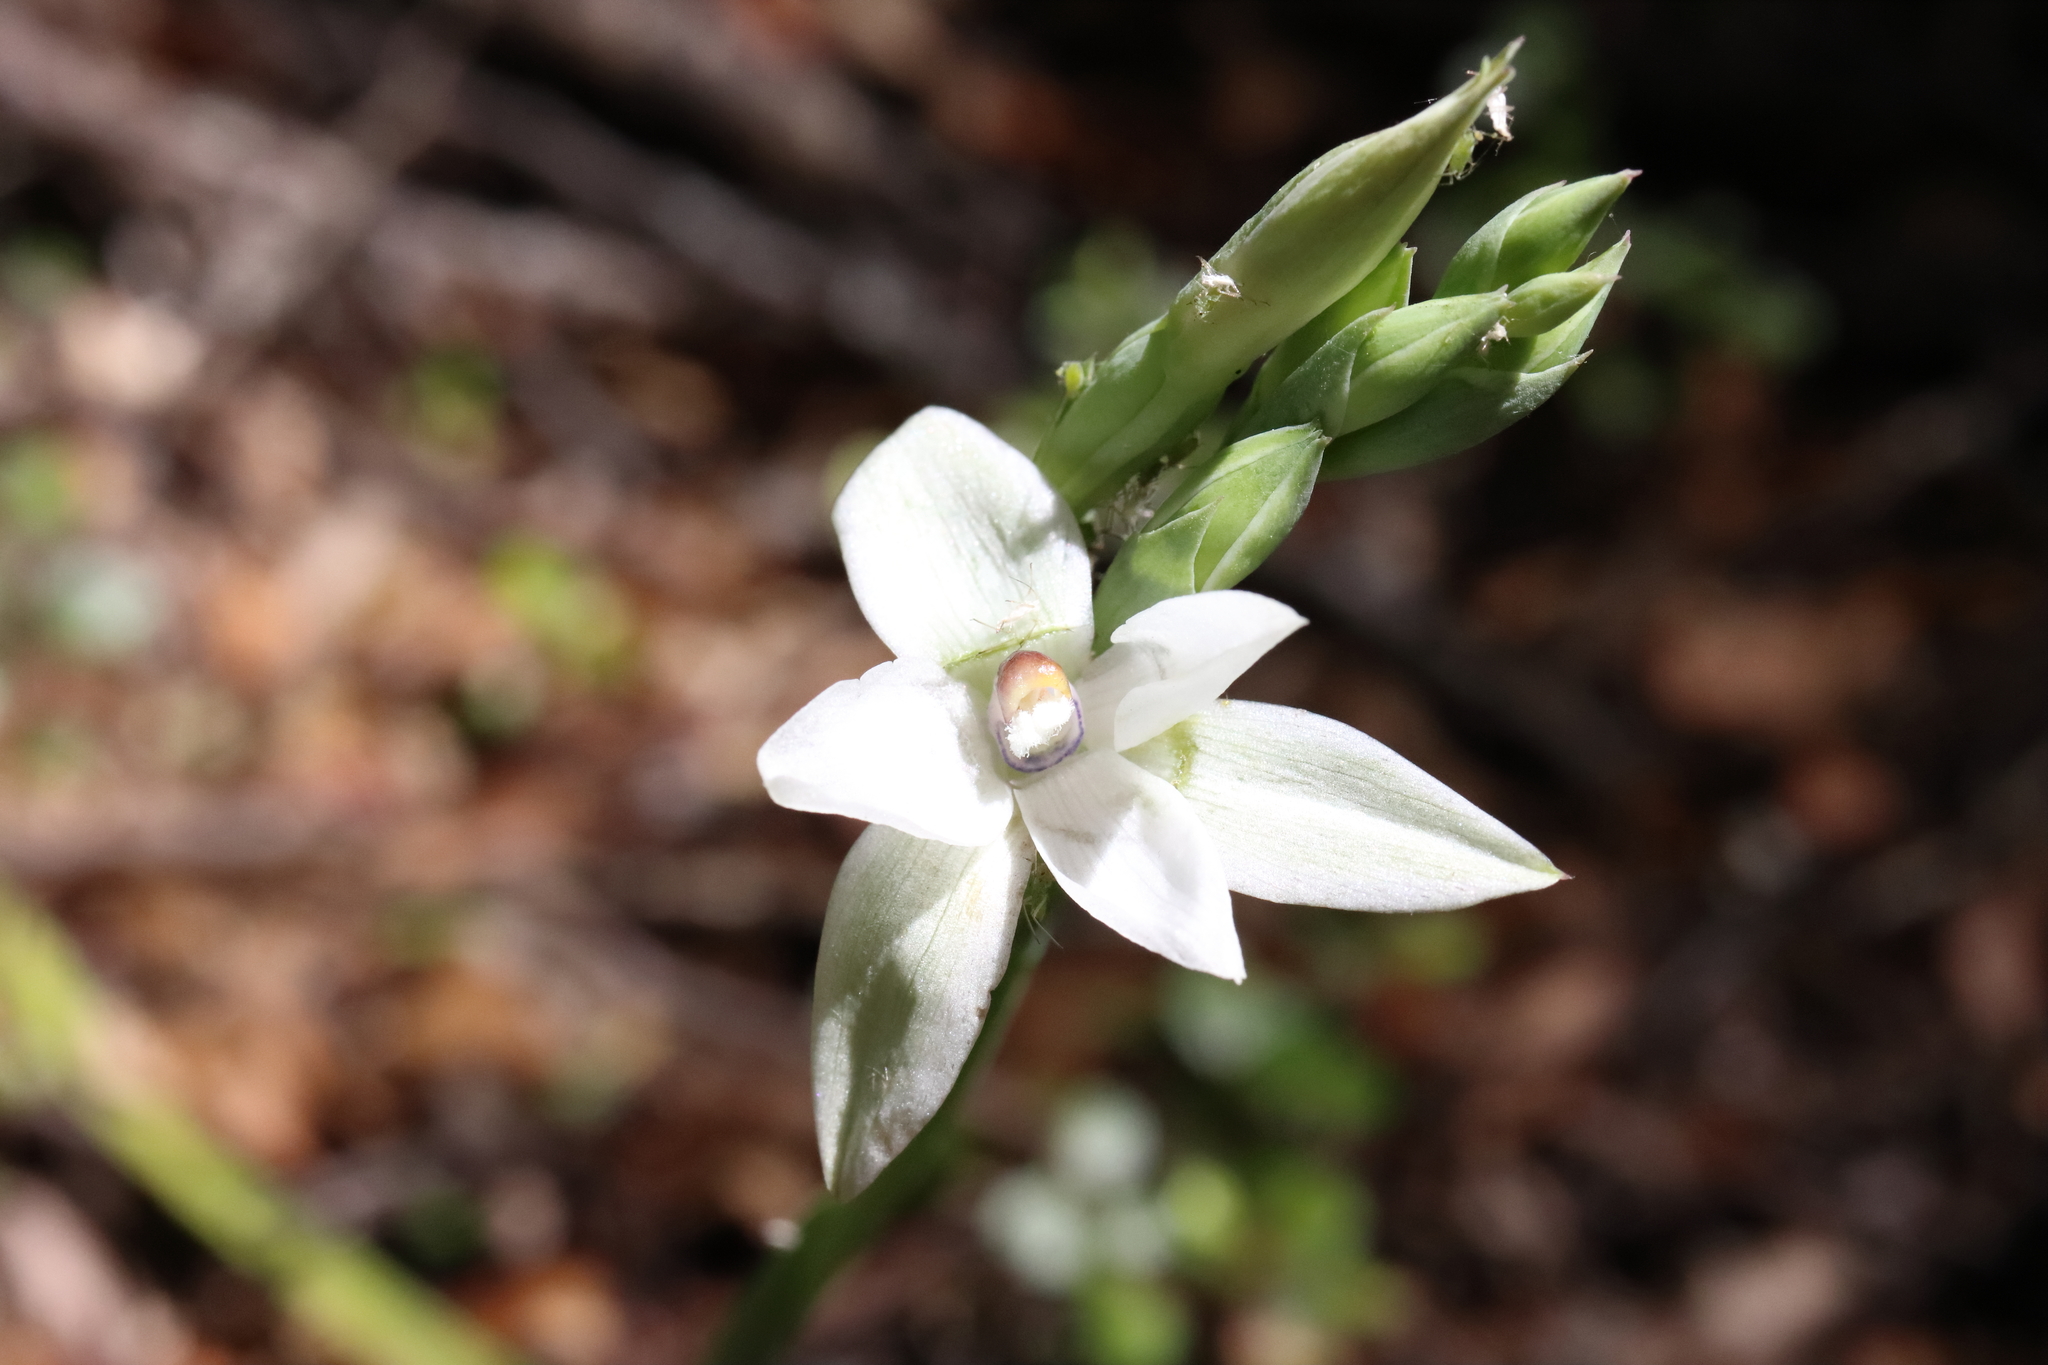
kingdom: Plantae
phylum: Tracheophyta
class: Liliopsida
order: Asparagales
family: Orchidaceae
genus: Thelymitra
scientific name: Thelymitra longifolia
